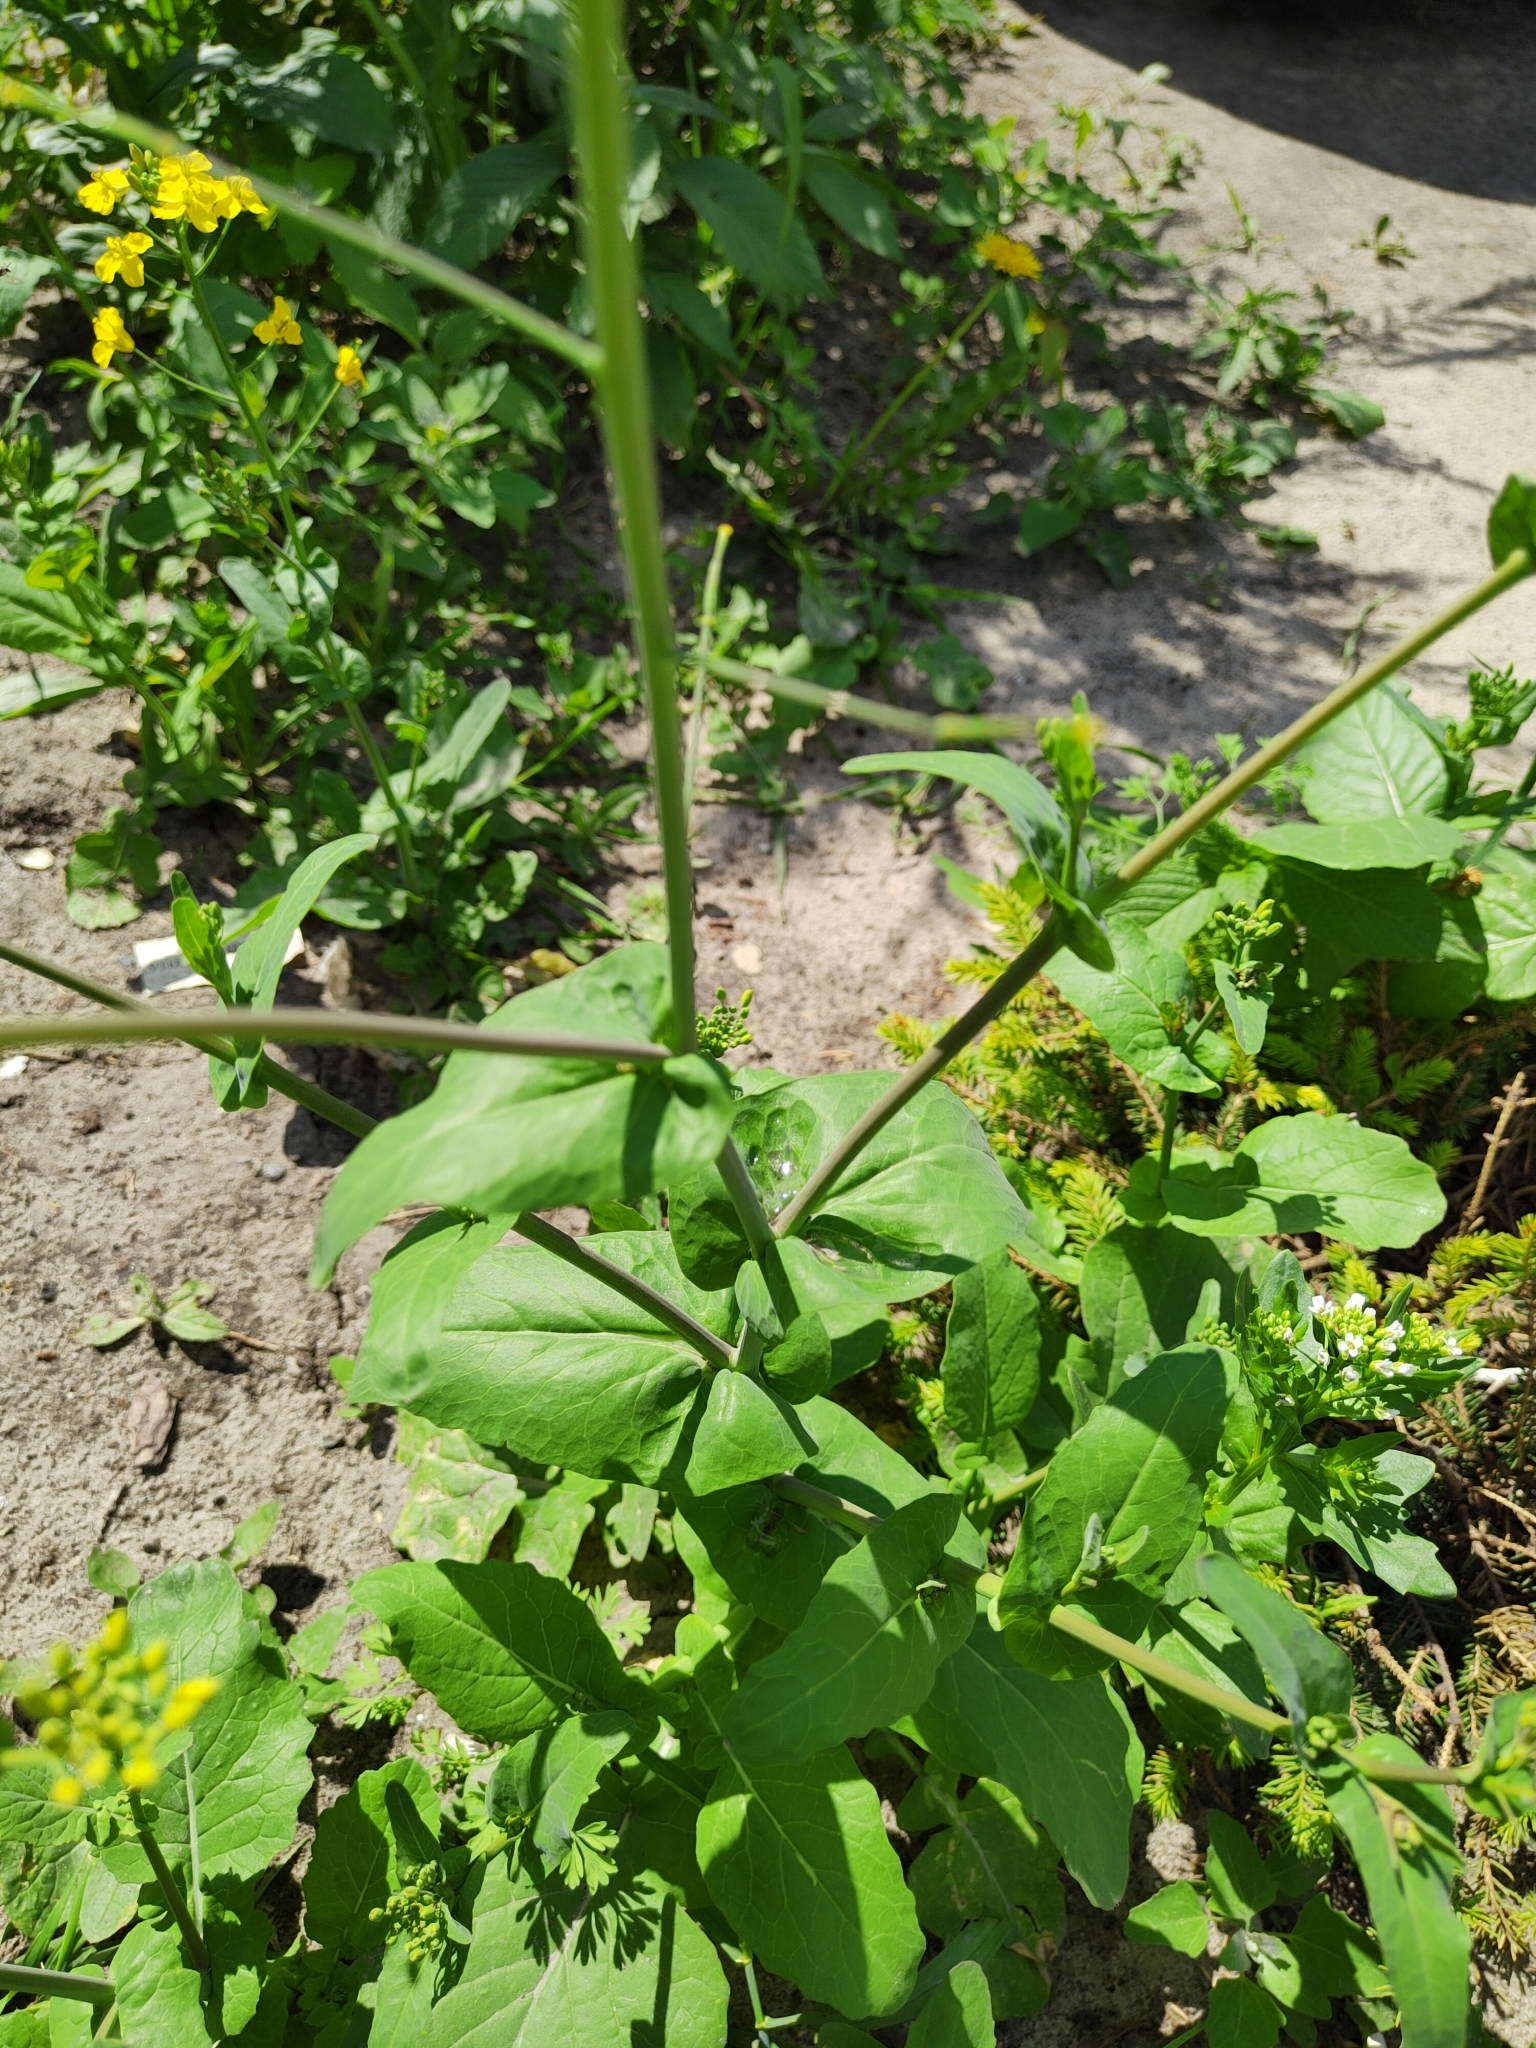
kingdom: Plantae
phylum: Tracheophyta
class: Magnoliopsida
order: Brassicales
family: Brassicaceae
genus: Brassica
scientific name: Brassica rapa
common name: Field mustard
